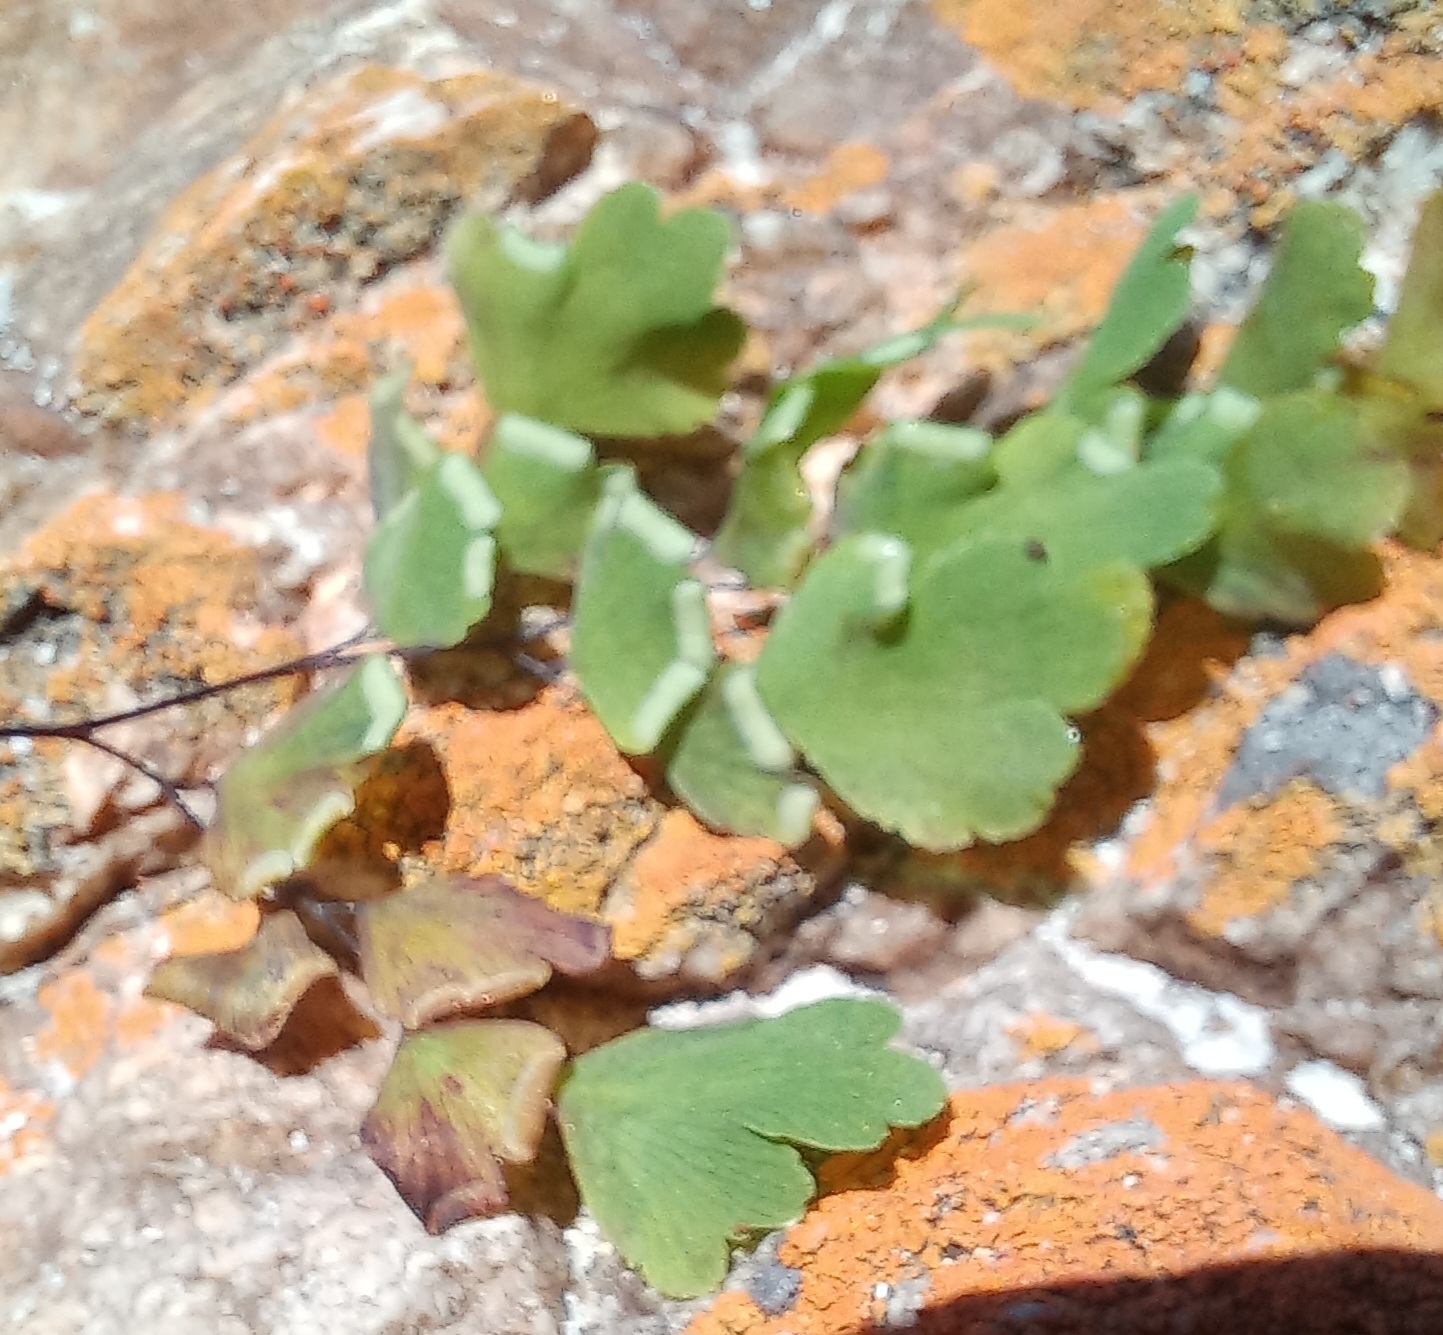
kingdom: Plantae
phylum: Tracheophyta
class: Polypodiopsida
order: Polypodiales
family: Pteridaceae
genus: Adiantum
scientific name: Adiantum capillus-veneris
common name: Maidenhair fern
